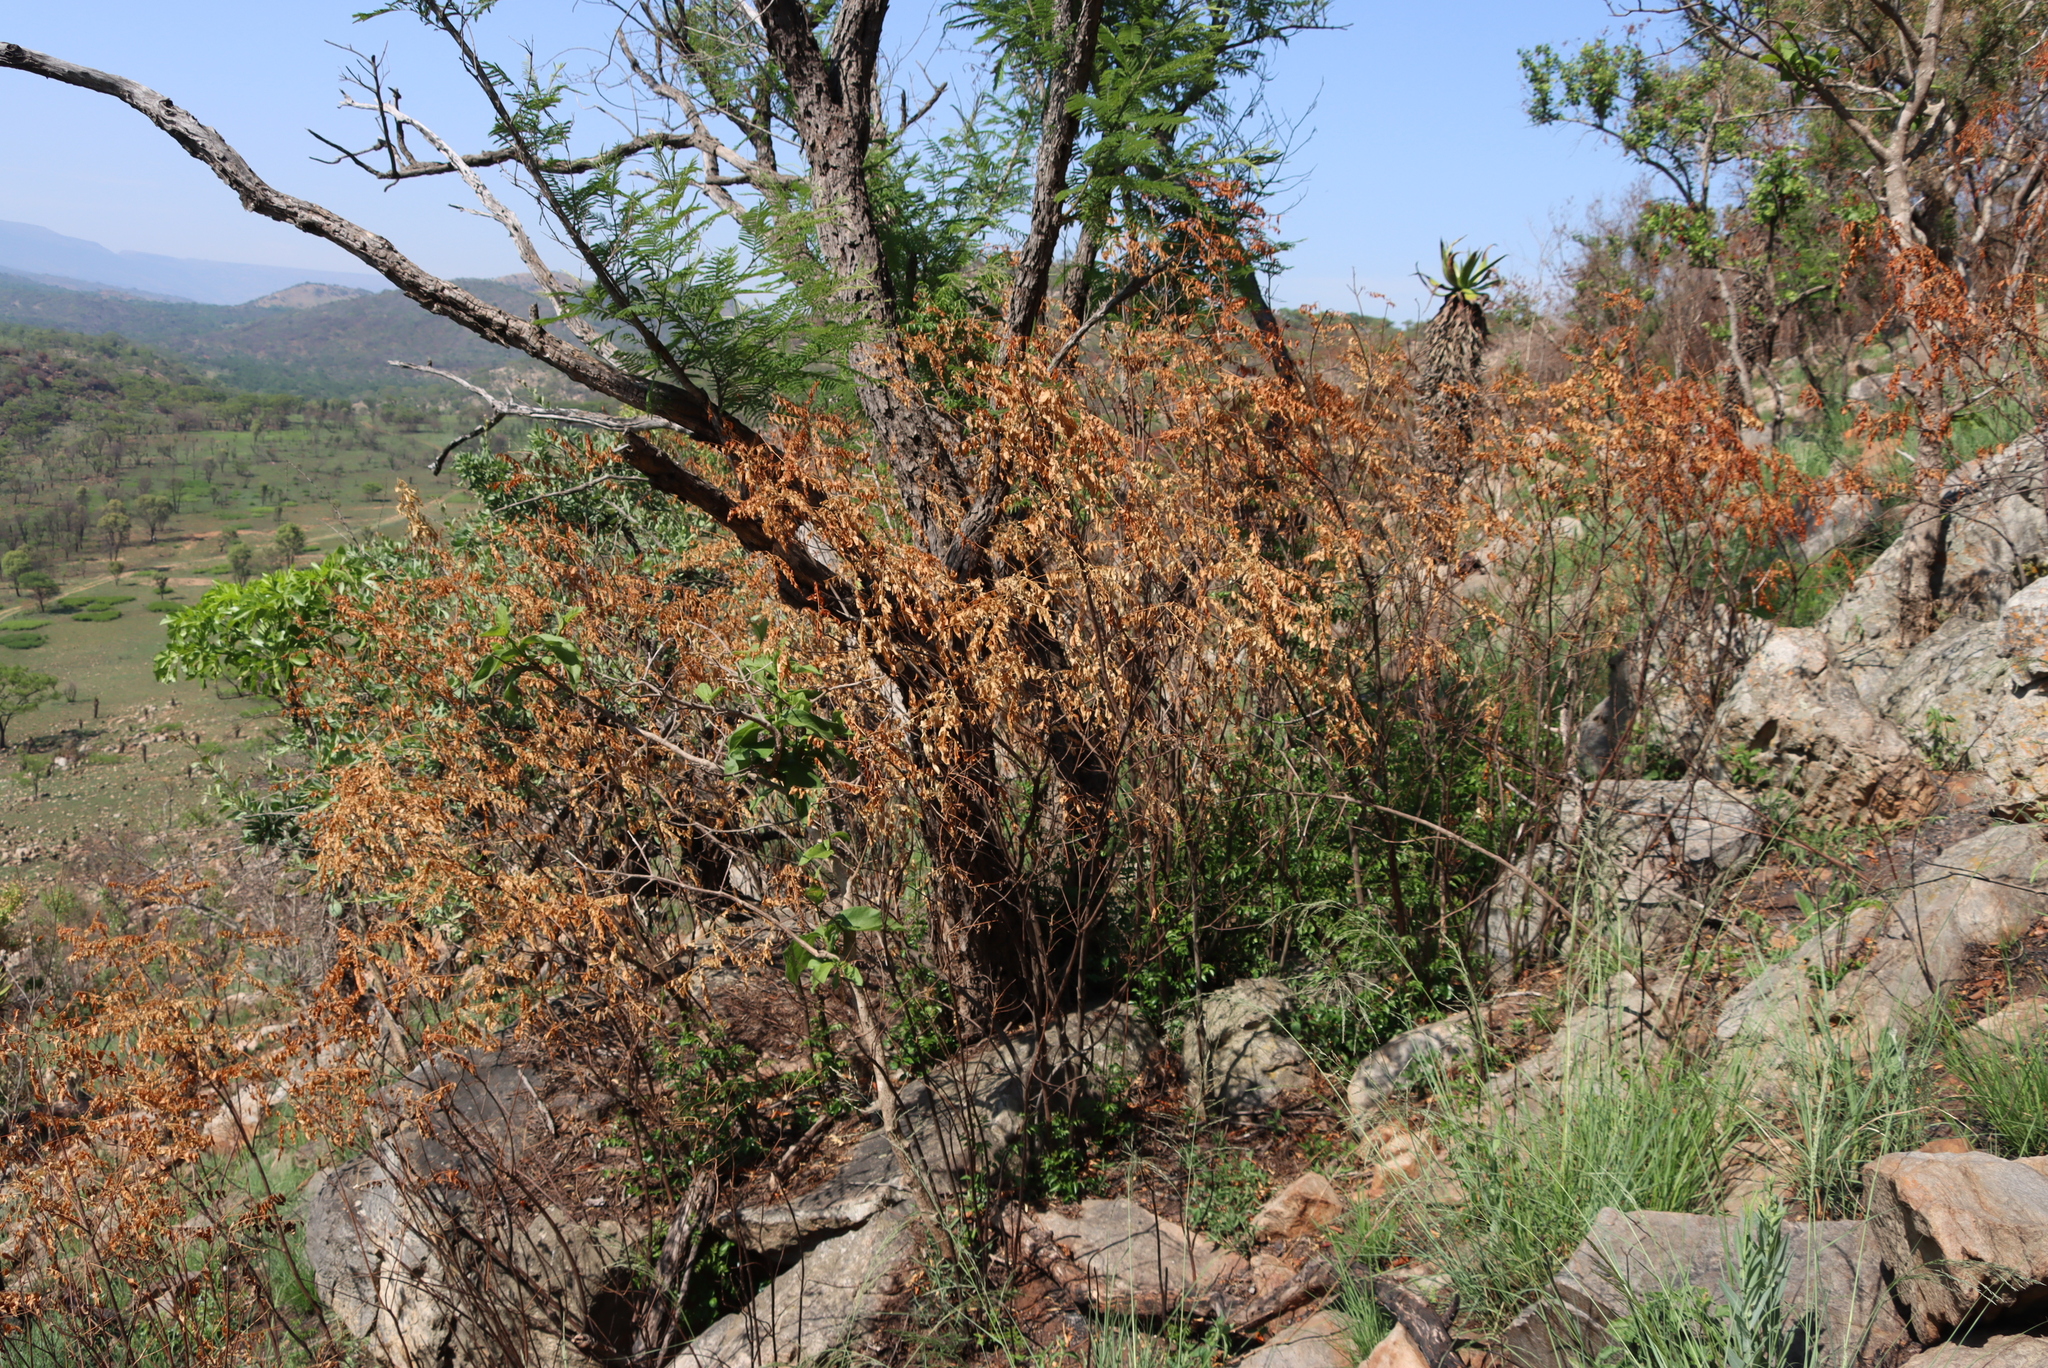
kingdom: Plantae
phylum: Tracheophyta
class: Magnoliopsida
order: Sapindales
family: Rutaceae
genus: Clausena
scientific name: Clausena anisata
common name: Horsewood
